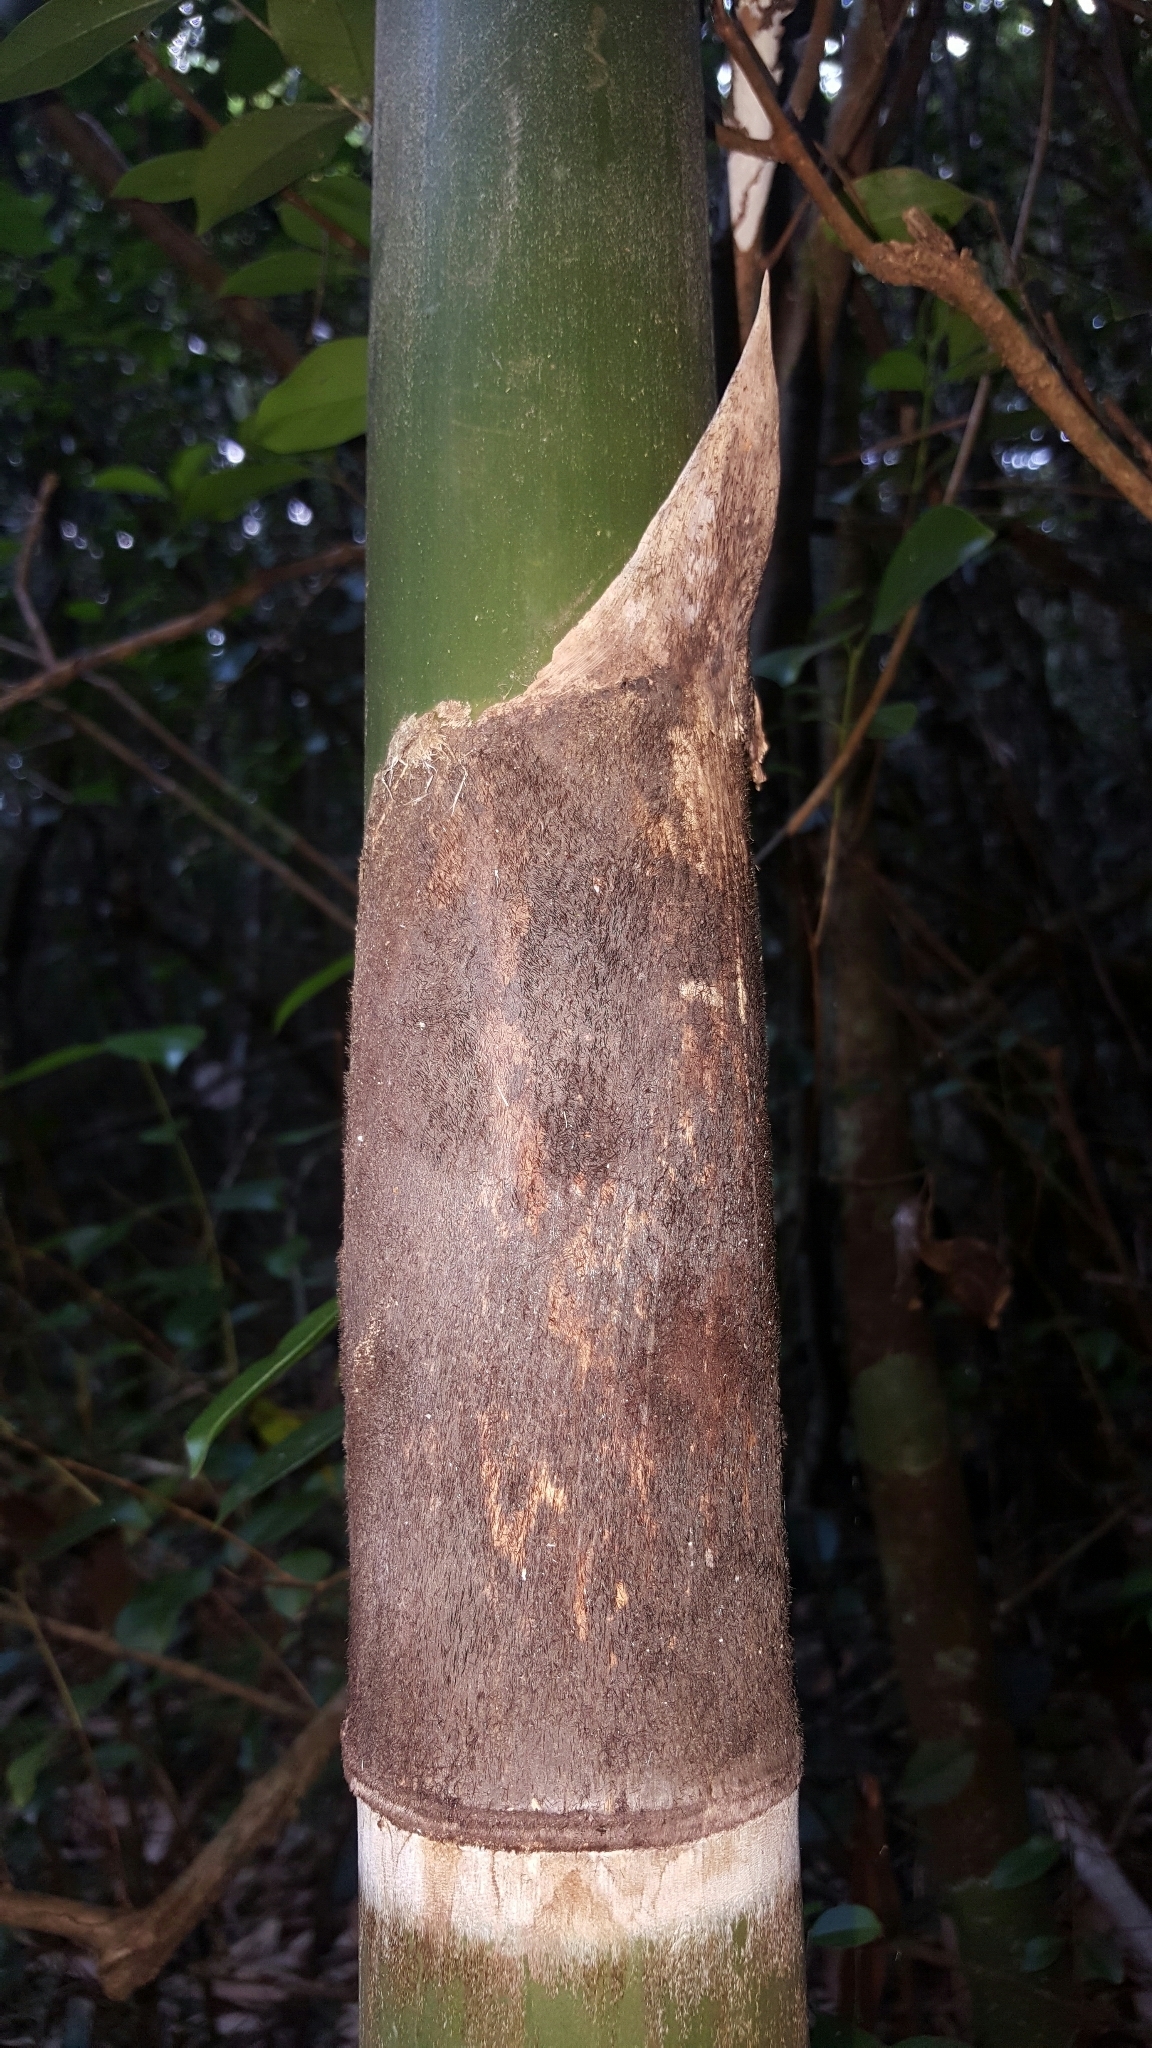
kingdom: Plantae
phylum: Tracheophyta
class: Liliopsida
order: Poales
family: Poaceae
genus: Cathariostachys
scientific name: Cathariostachys madagascariensis
